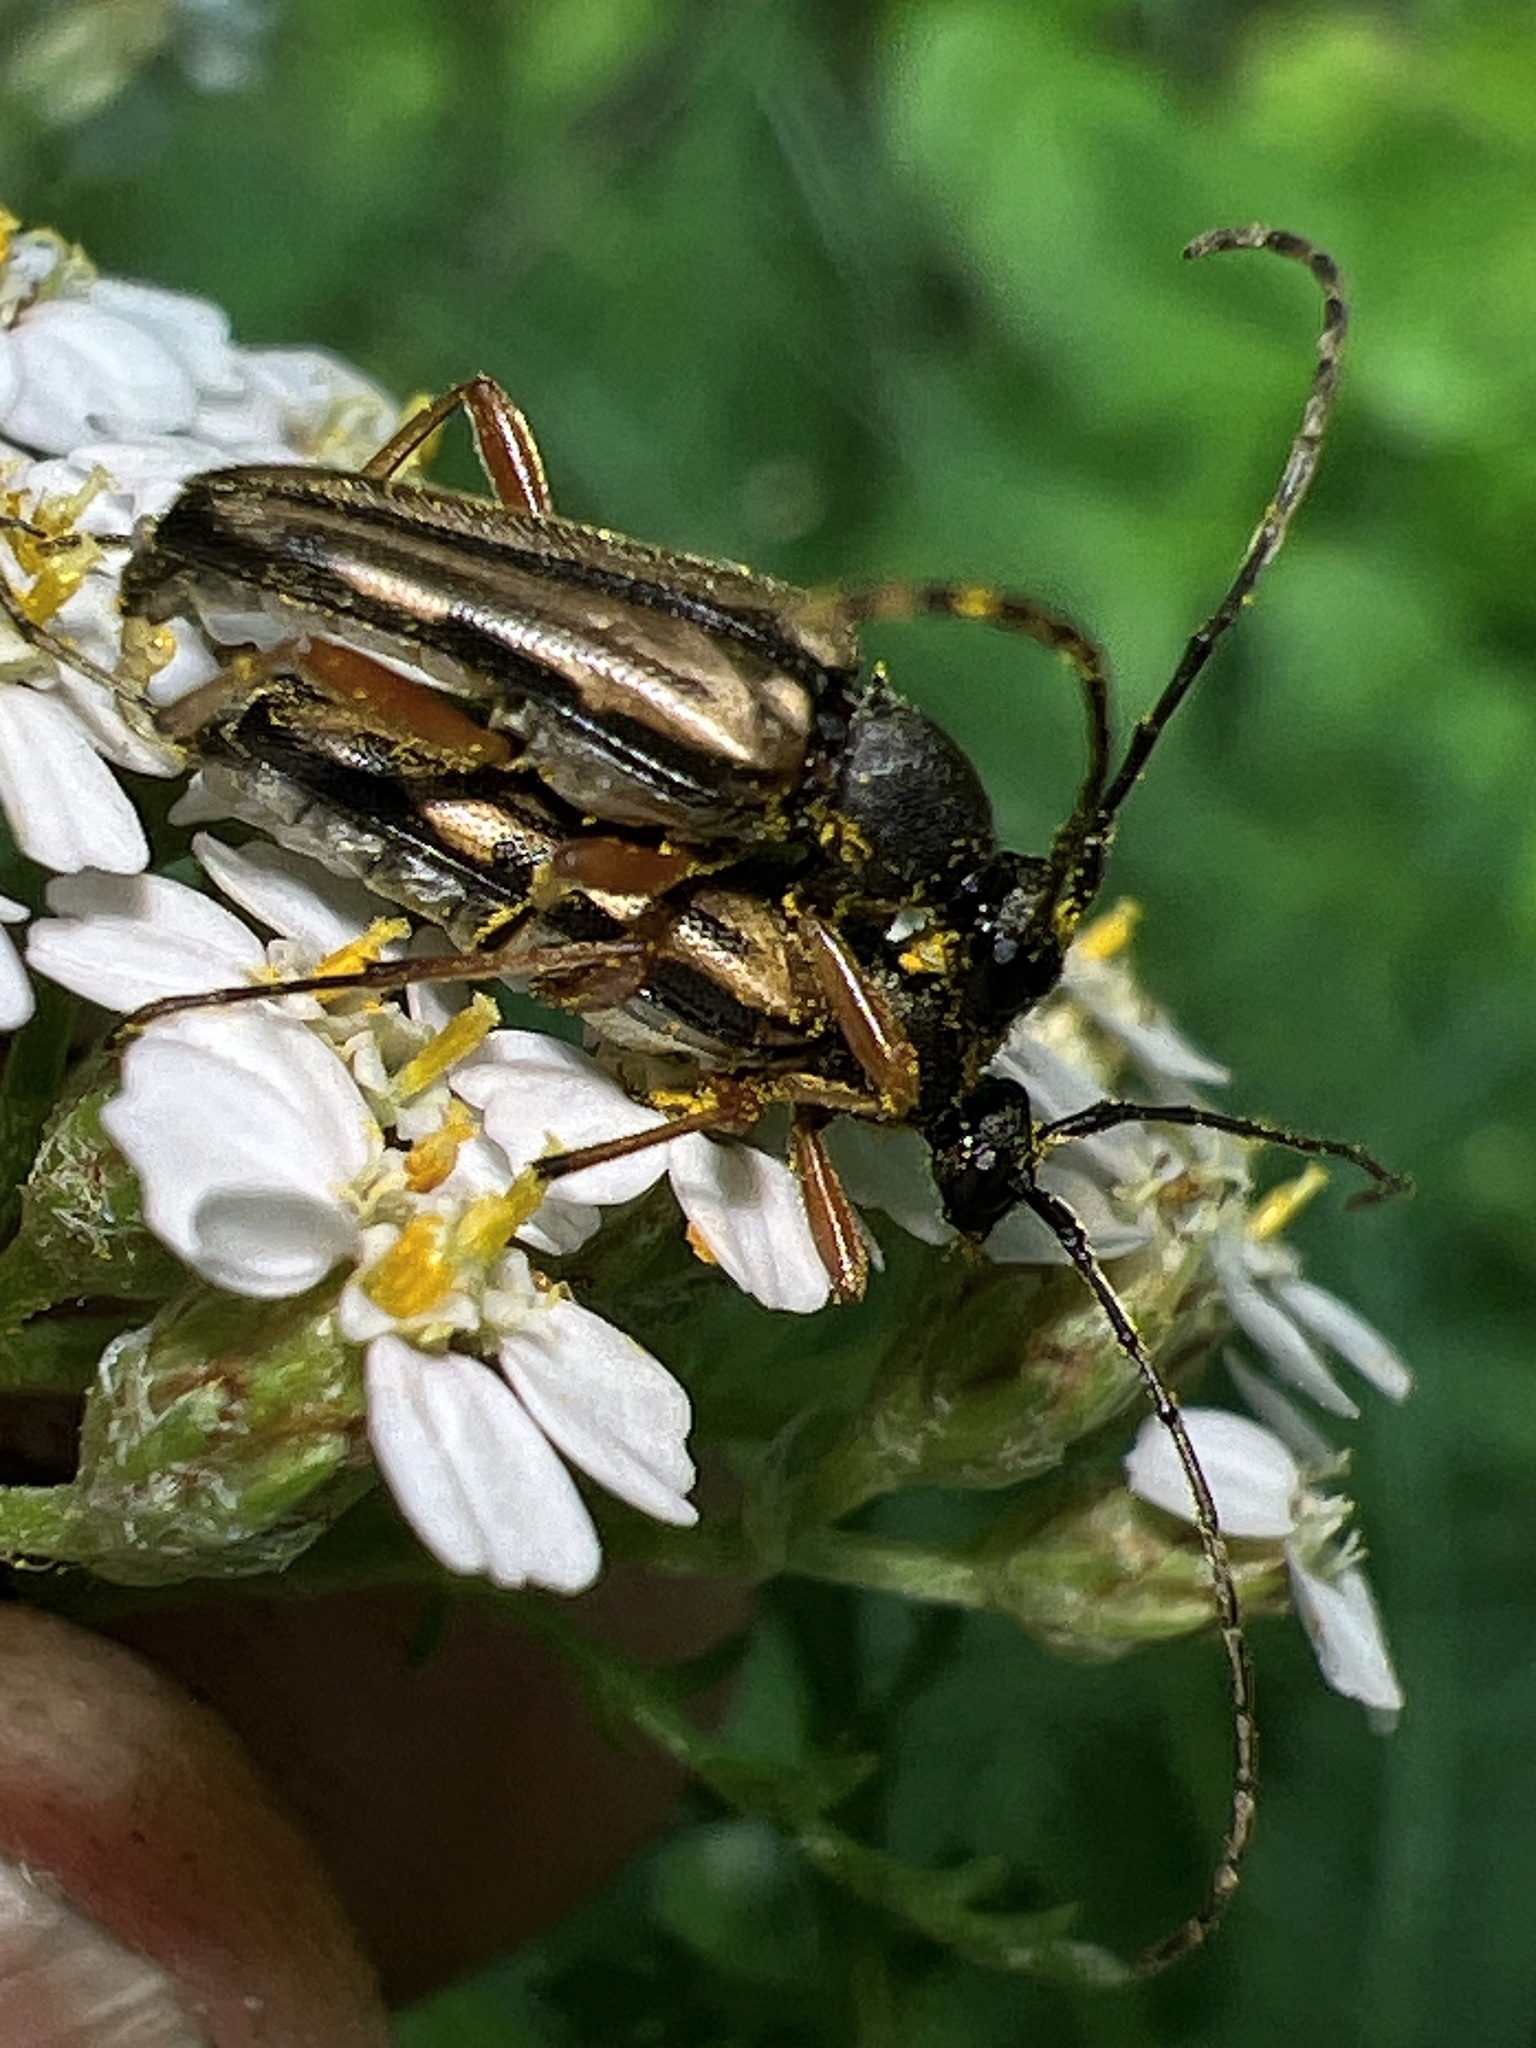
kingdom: Animalia
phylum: Arthropoda
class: Insecta
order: Coleoptera
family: Cerambycidae
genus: Analeptura
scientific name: Analeptura lineola
